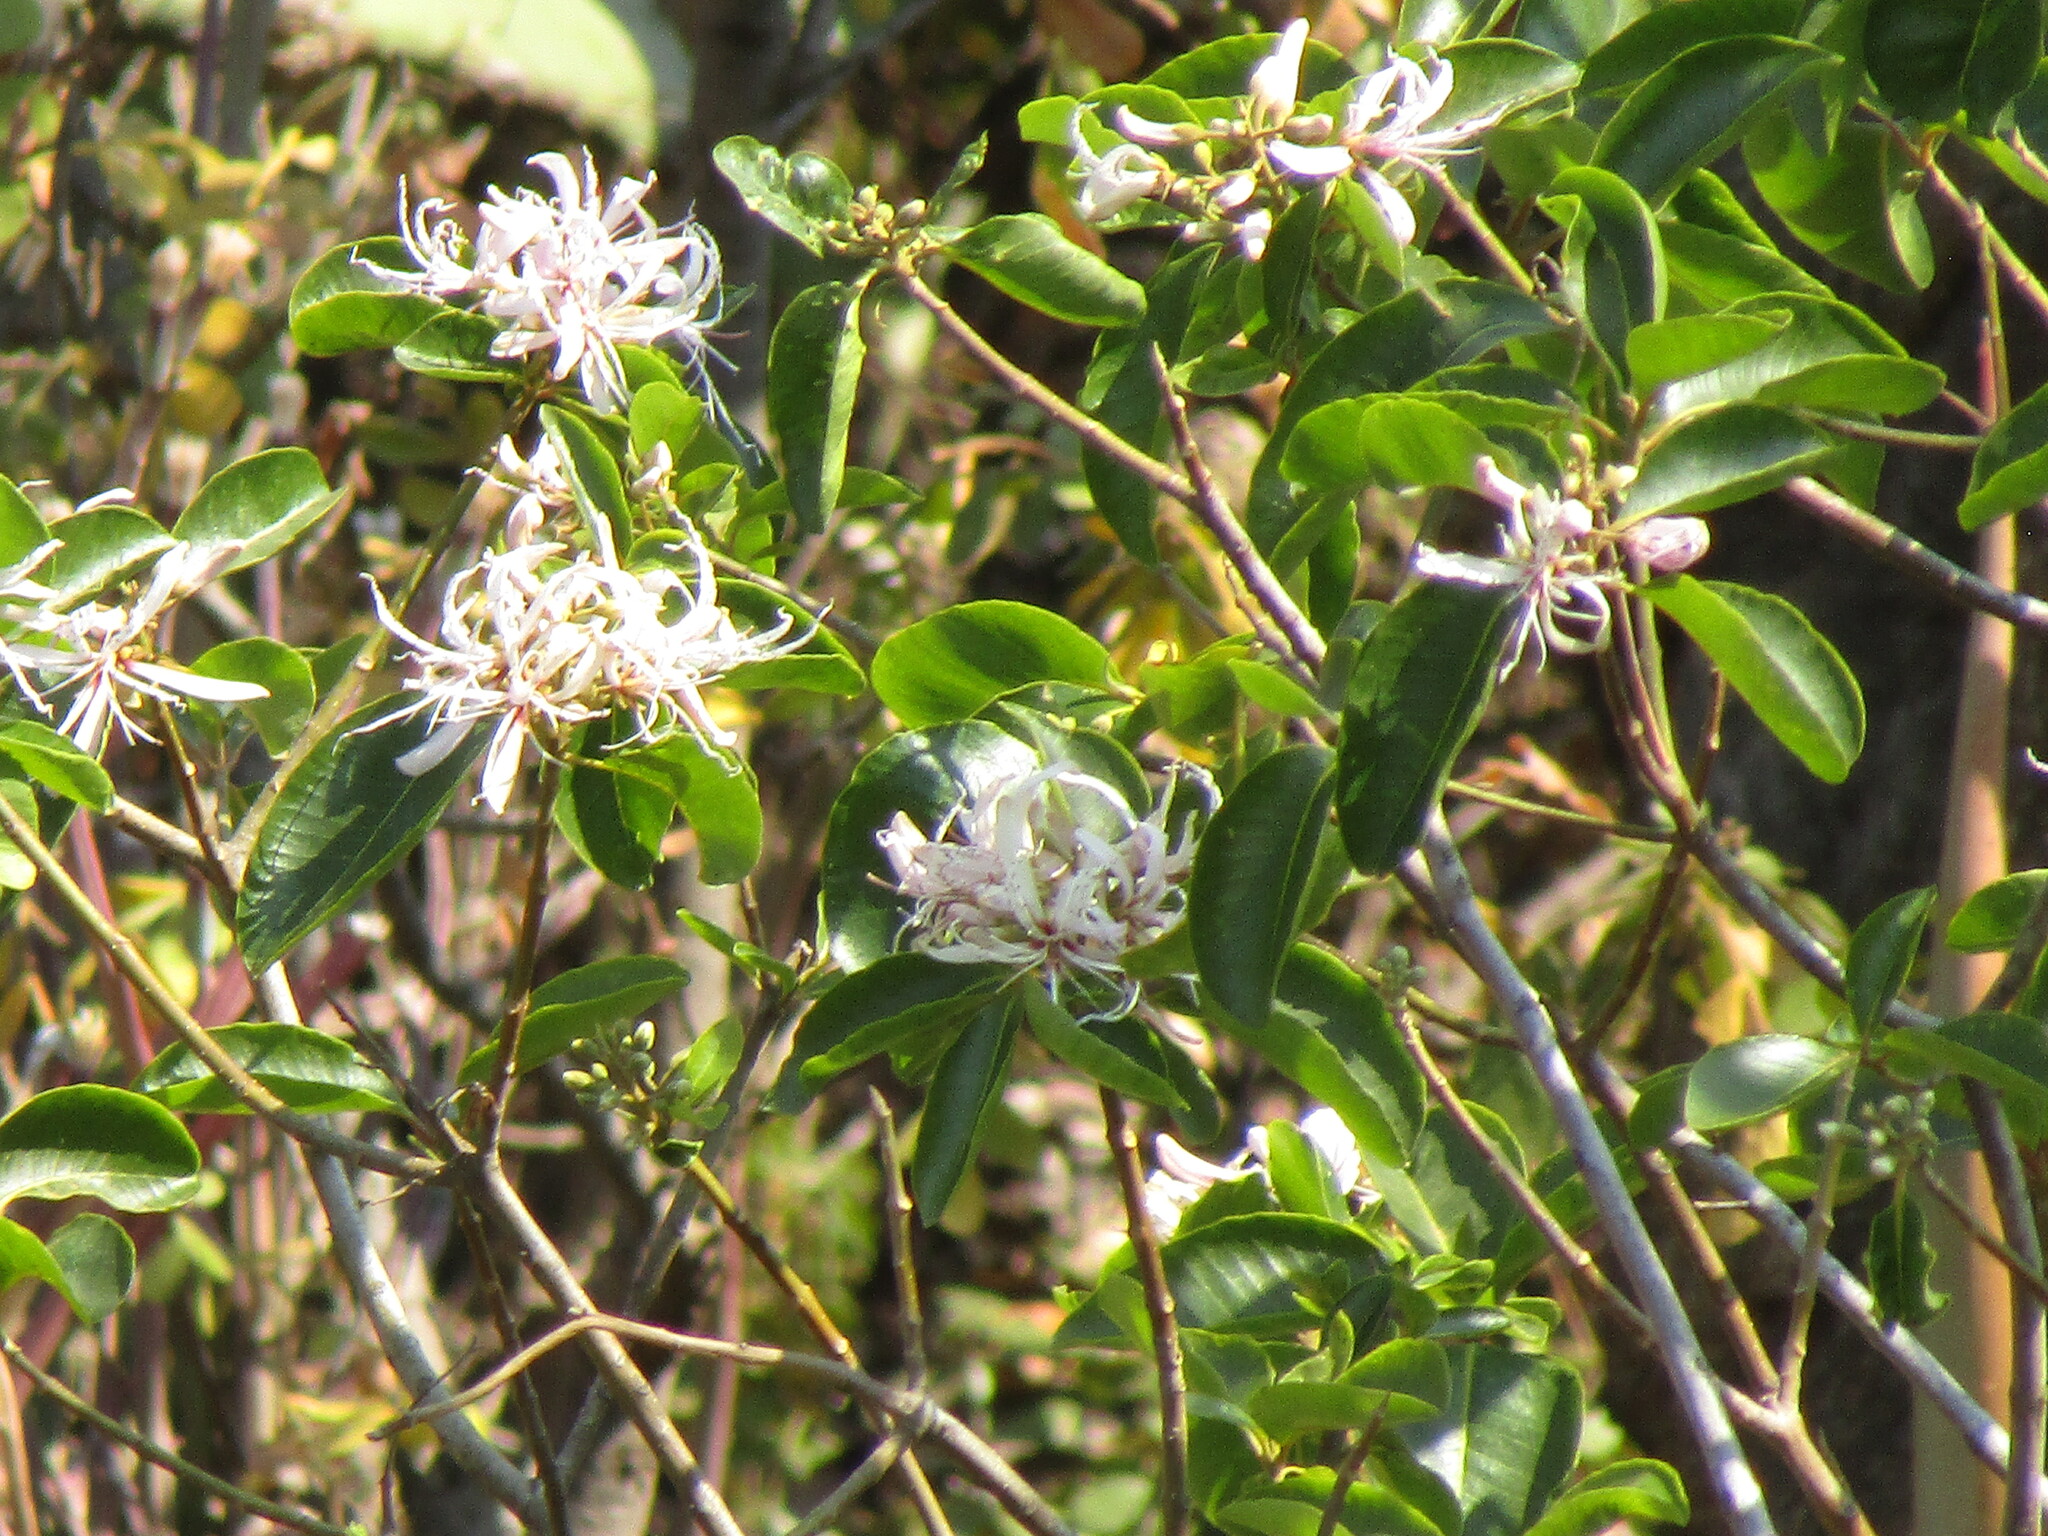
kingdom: Plantae
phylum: Tracheophyta
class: Magnoliopsida
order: Sapindales
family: Rutaceae
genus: Calodendrum
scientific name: Calodendrum capense
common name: Cape chestnut
